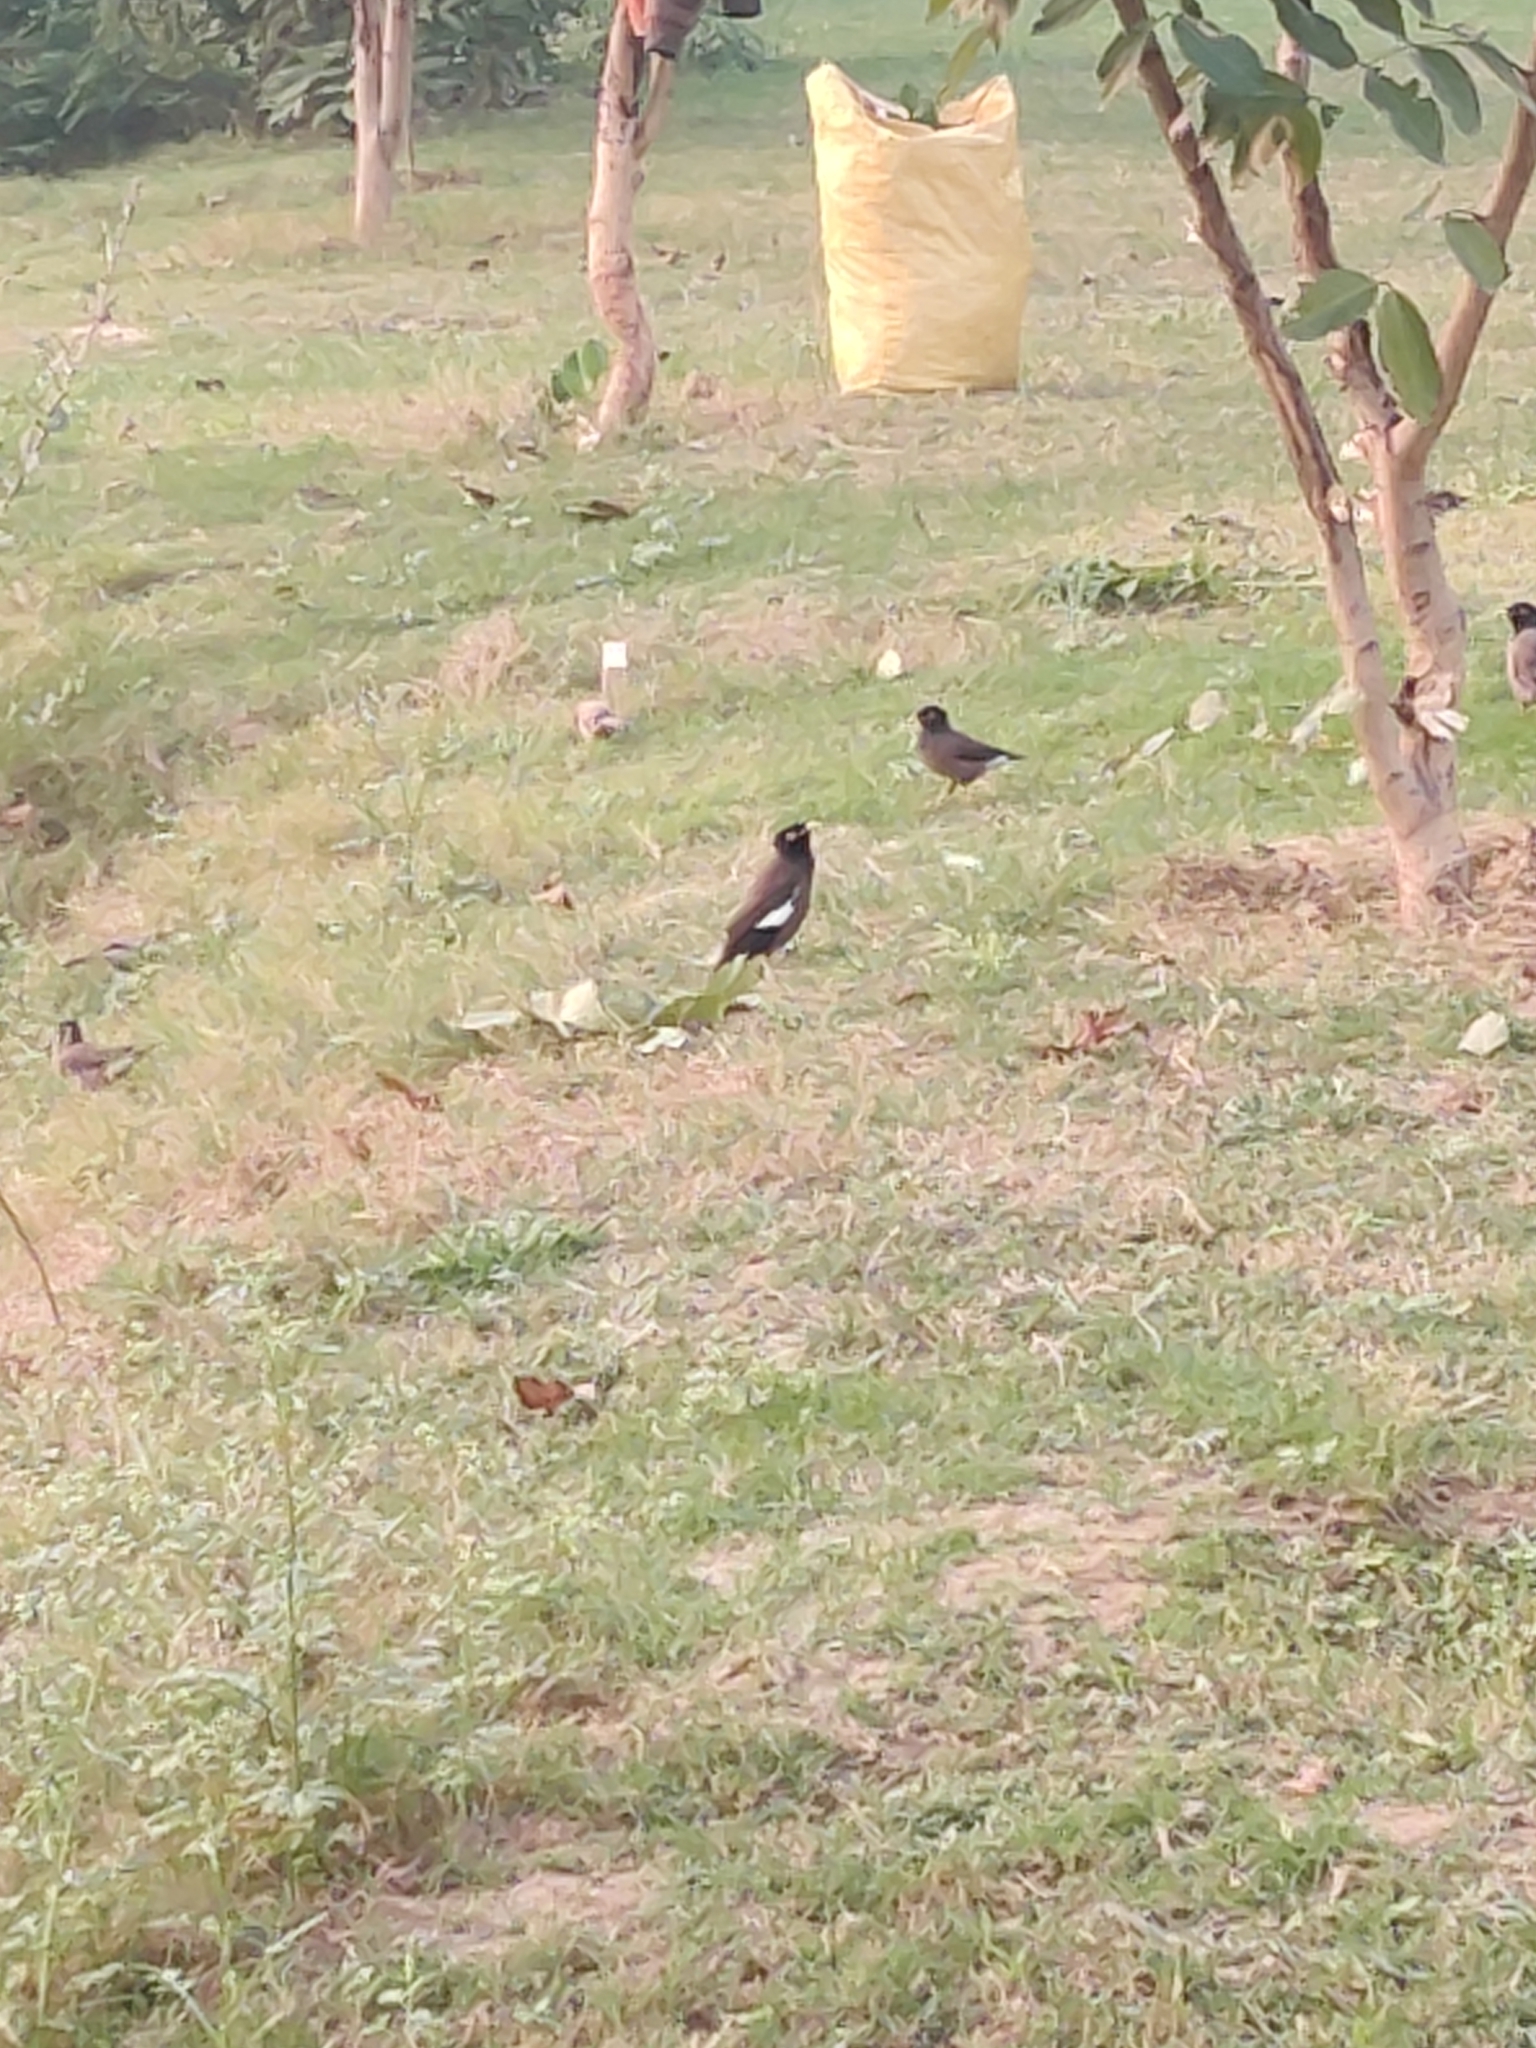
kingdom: Animalia
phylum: Chordata
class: Aves
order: Passeriformes
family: Sturnidae
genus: Acridotheres
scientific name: Acridotheres tristis
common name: Common myna
